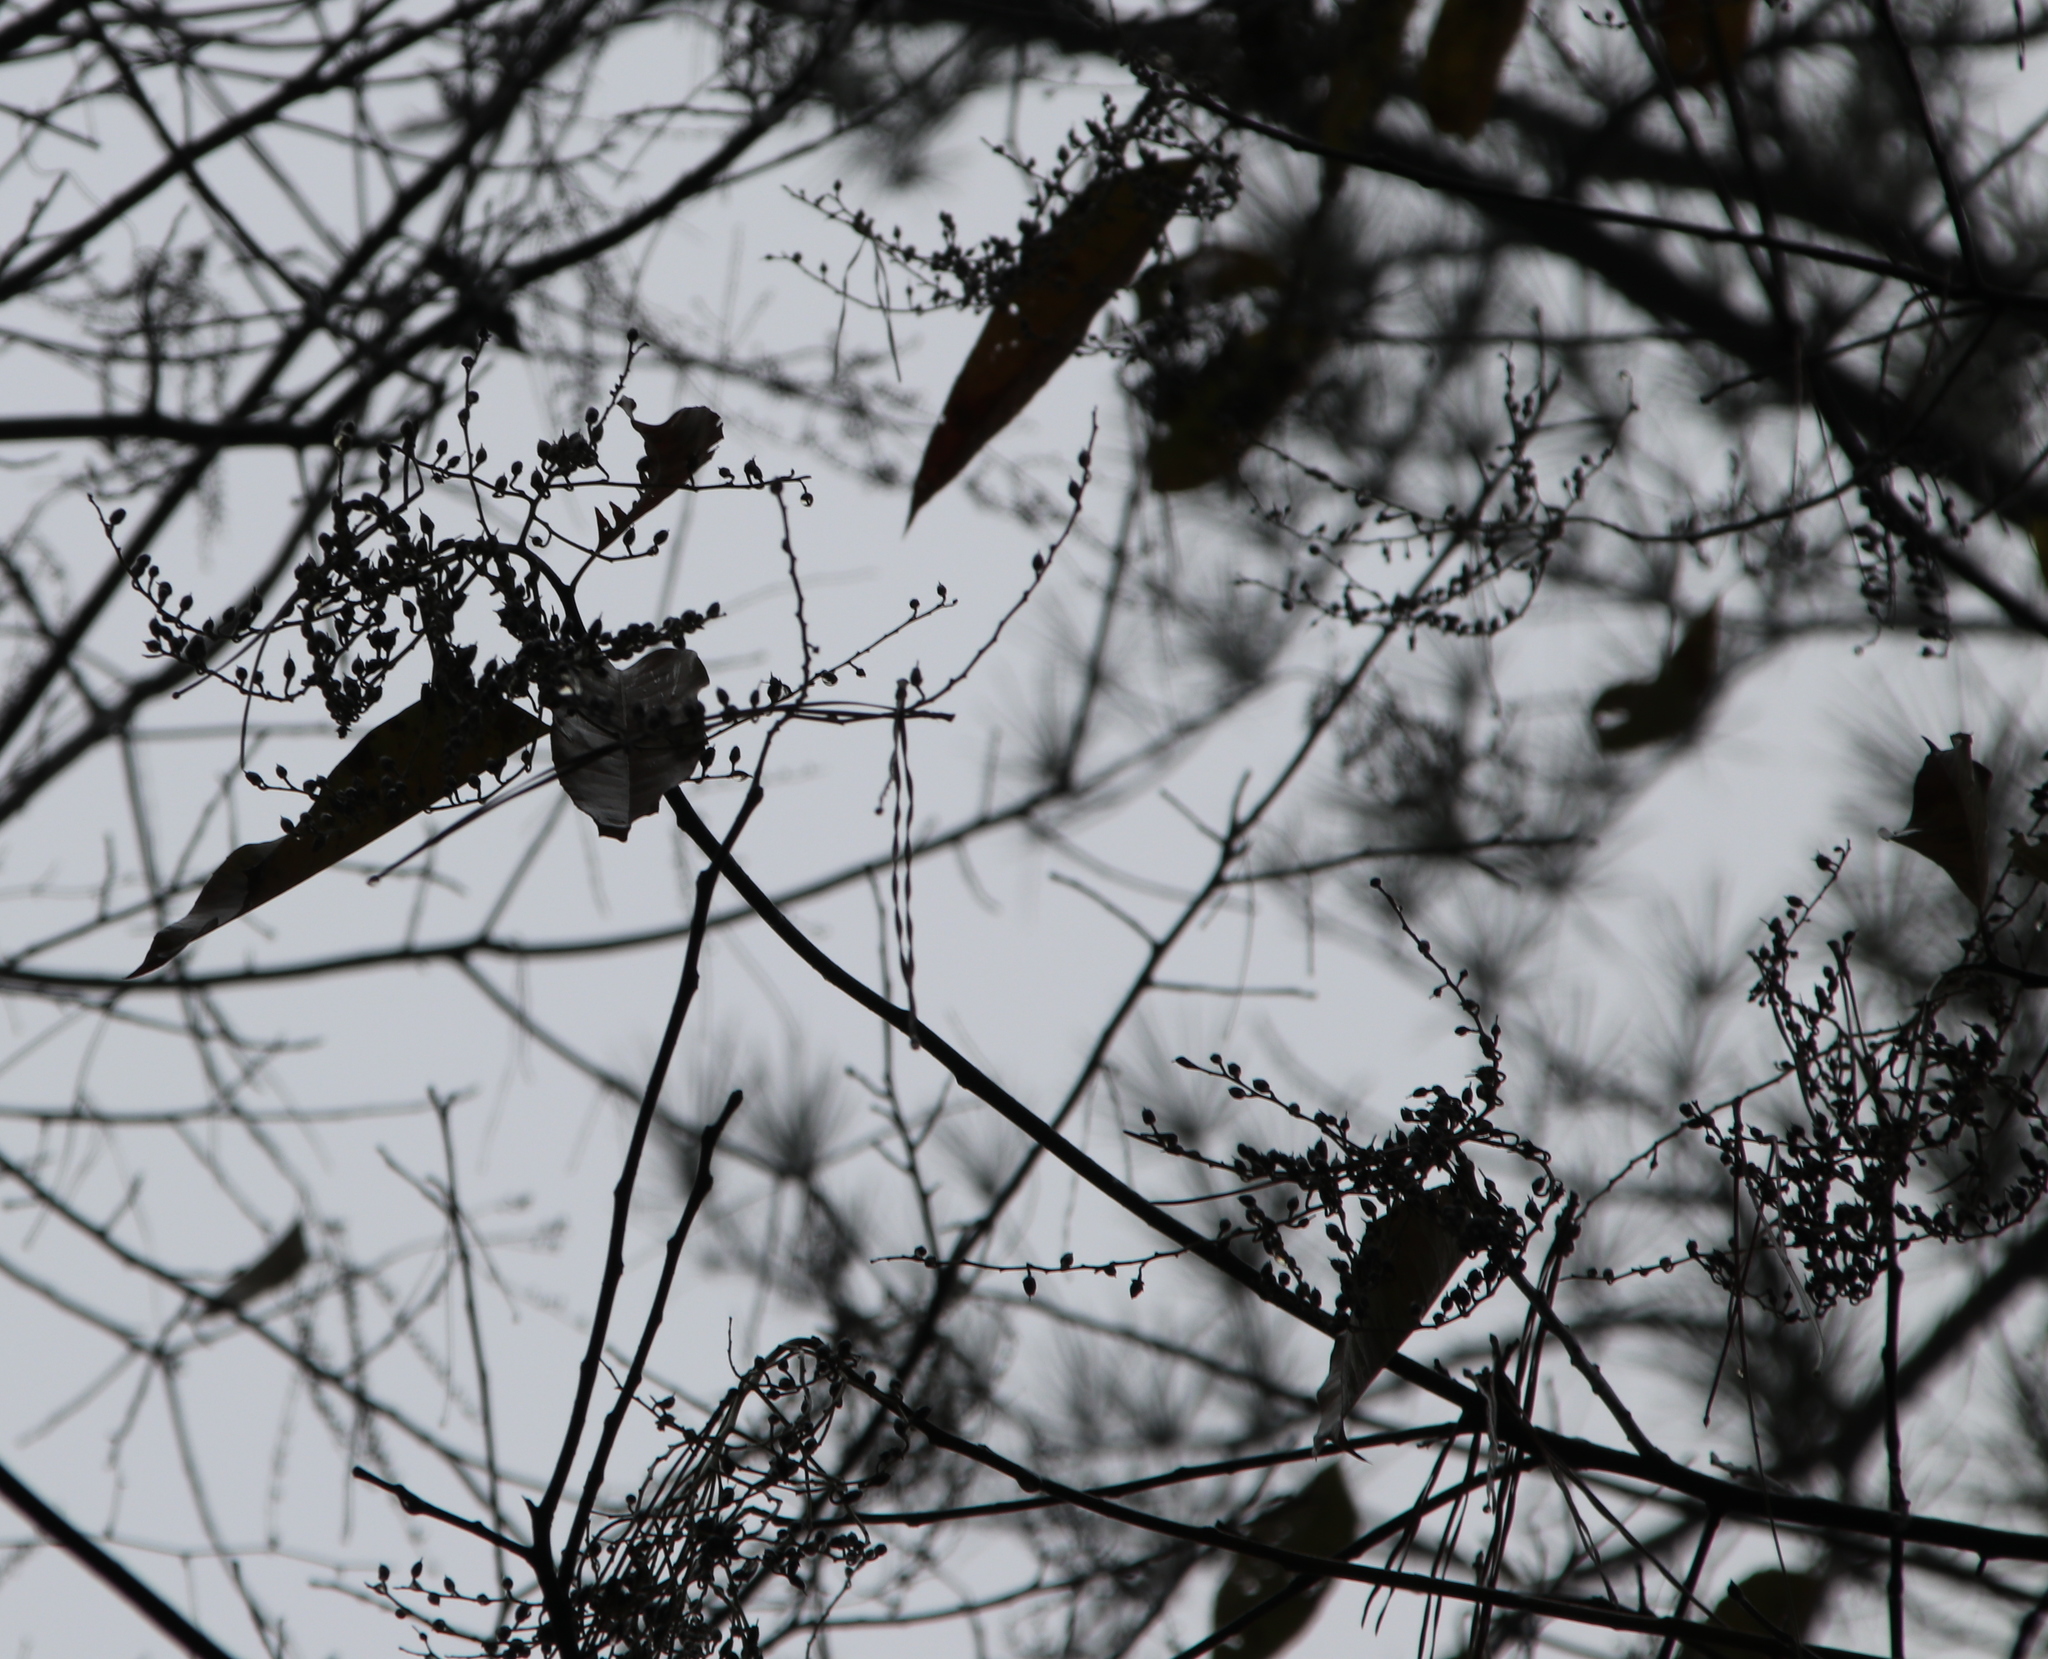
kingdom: Plantae
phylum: Tracheophyta
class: Magnoliopsida
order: Ericales
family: Ericaceae
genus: Oxydendrum
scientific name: Oxydendrum arboreum
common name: Sourwood
